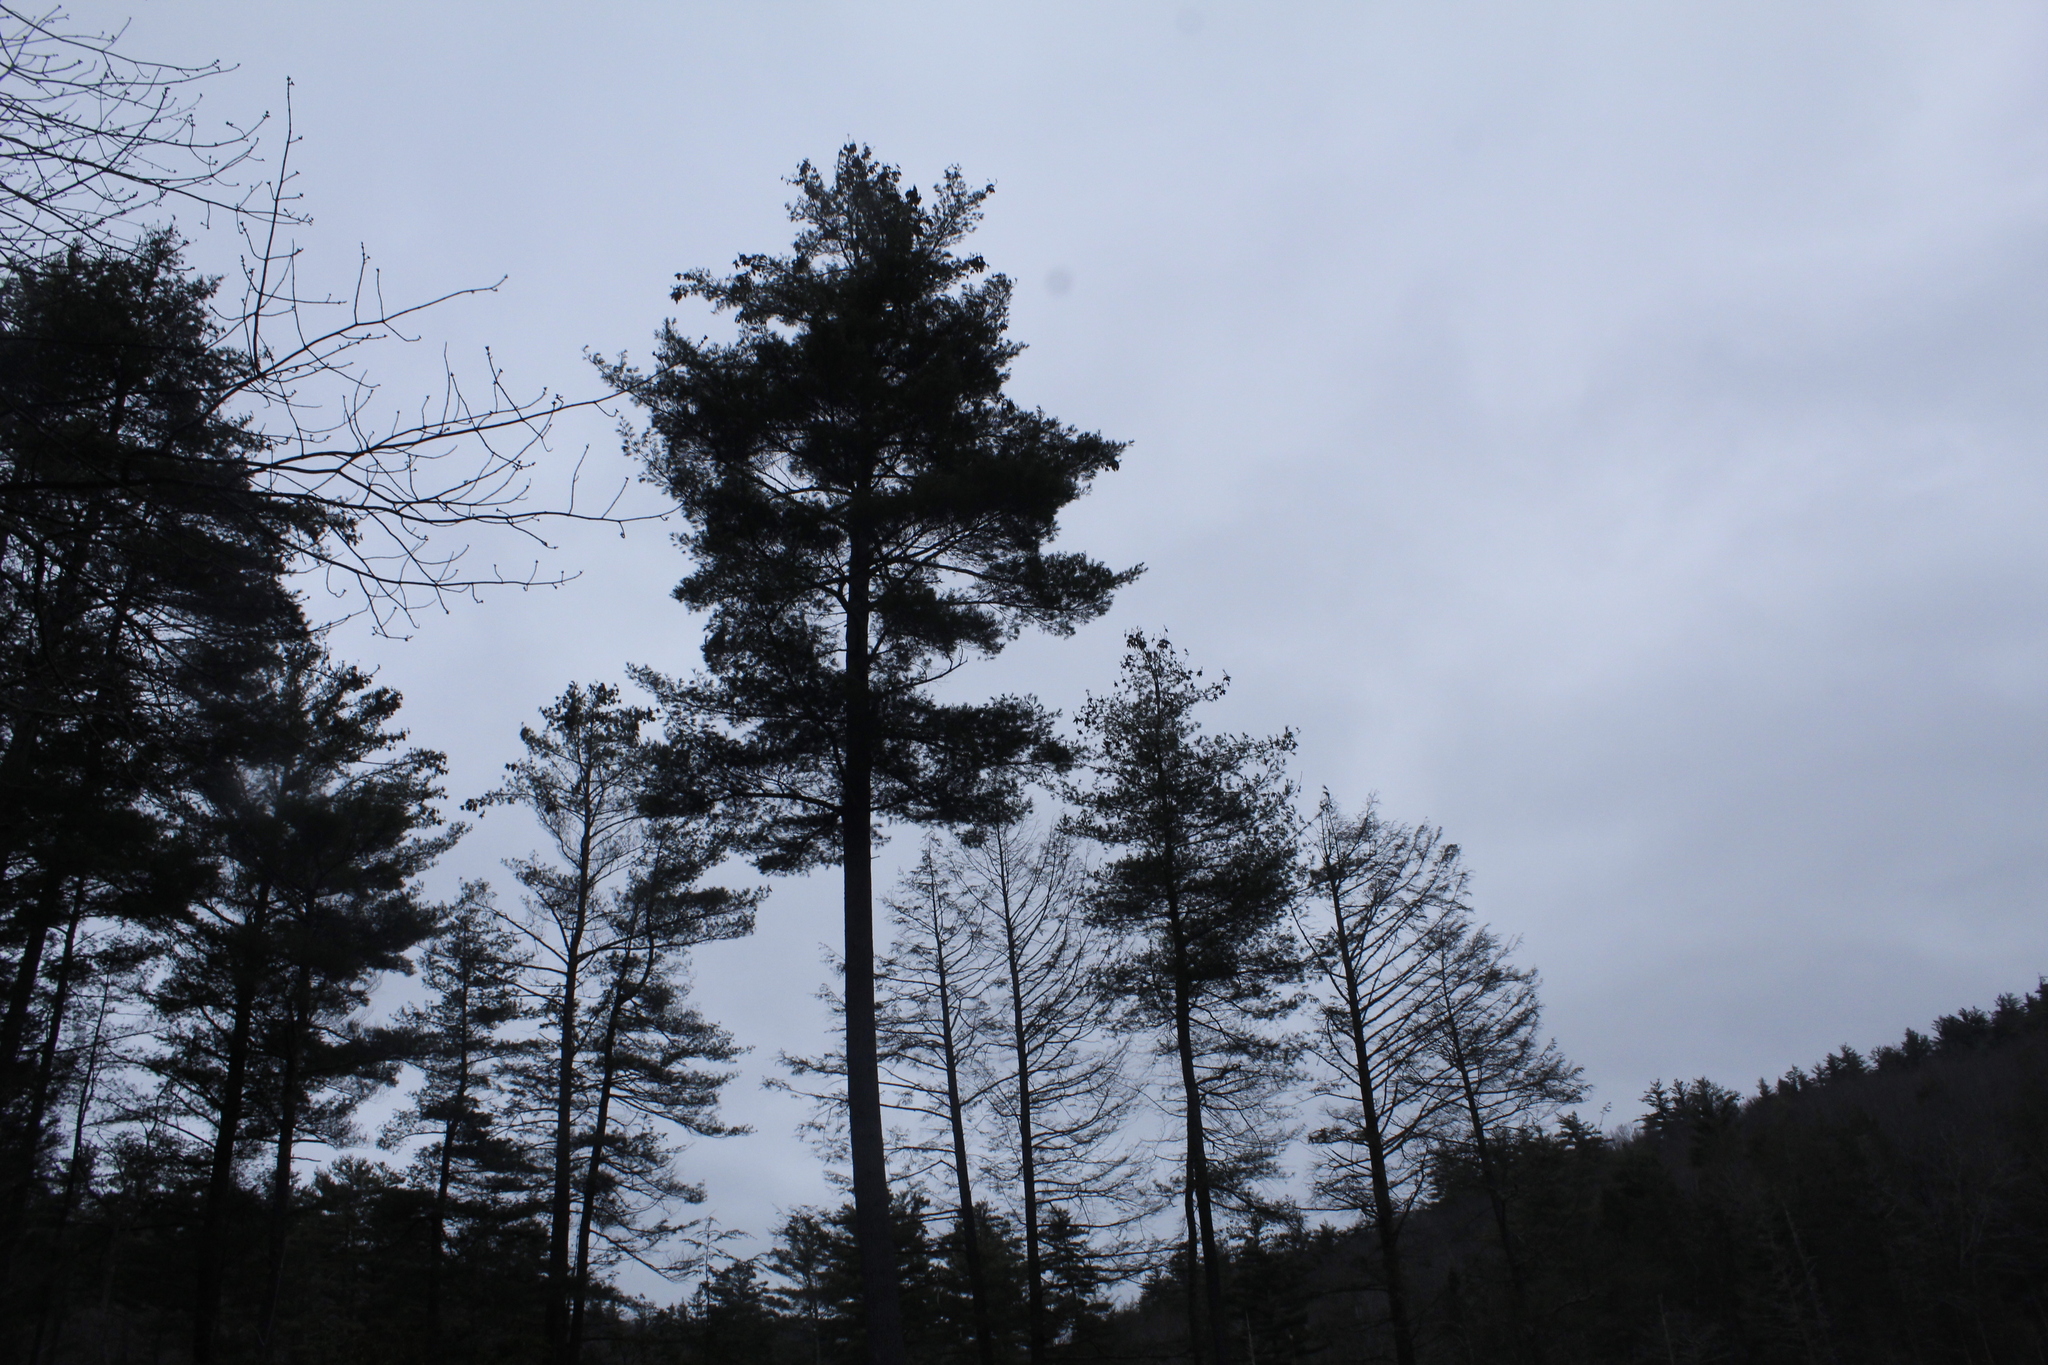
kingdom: Plantae
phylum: Tracheophyta
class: Pinopsida
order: Pinales
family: Pinaceae
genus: Pinus
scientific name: Pinus strobus
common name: Weymouth pine
